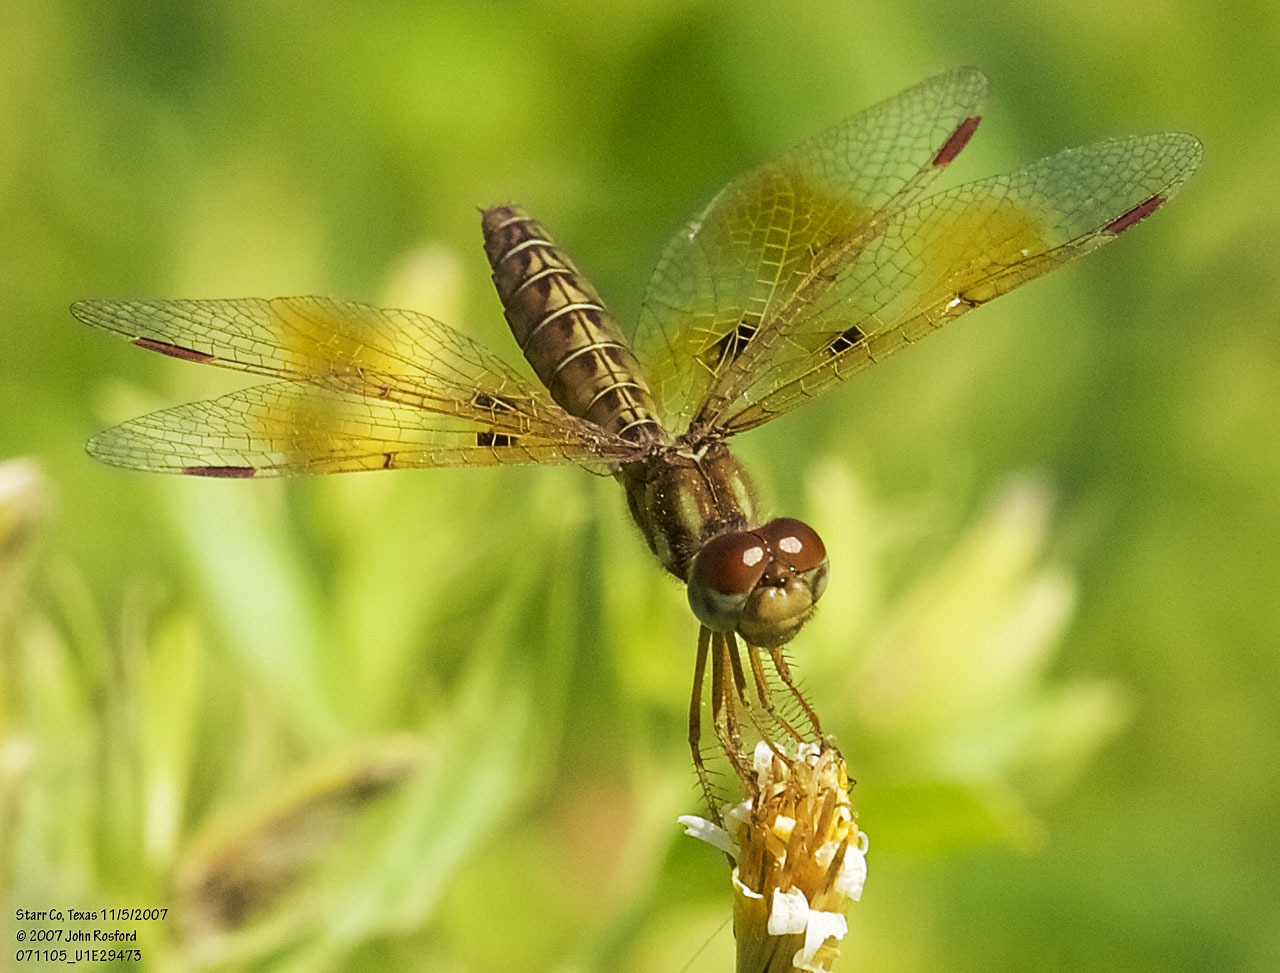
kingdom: Animalia
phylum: Arthropoda
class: Insecta
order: Odonata
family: Libellulidae
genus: Perithemis
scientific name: Perithemis tenera
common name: Eastern amberwing
